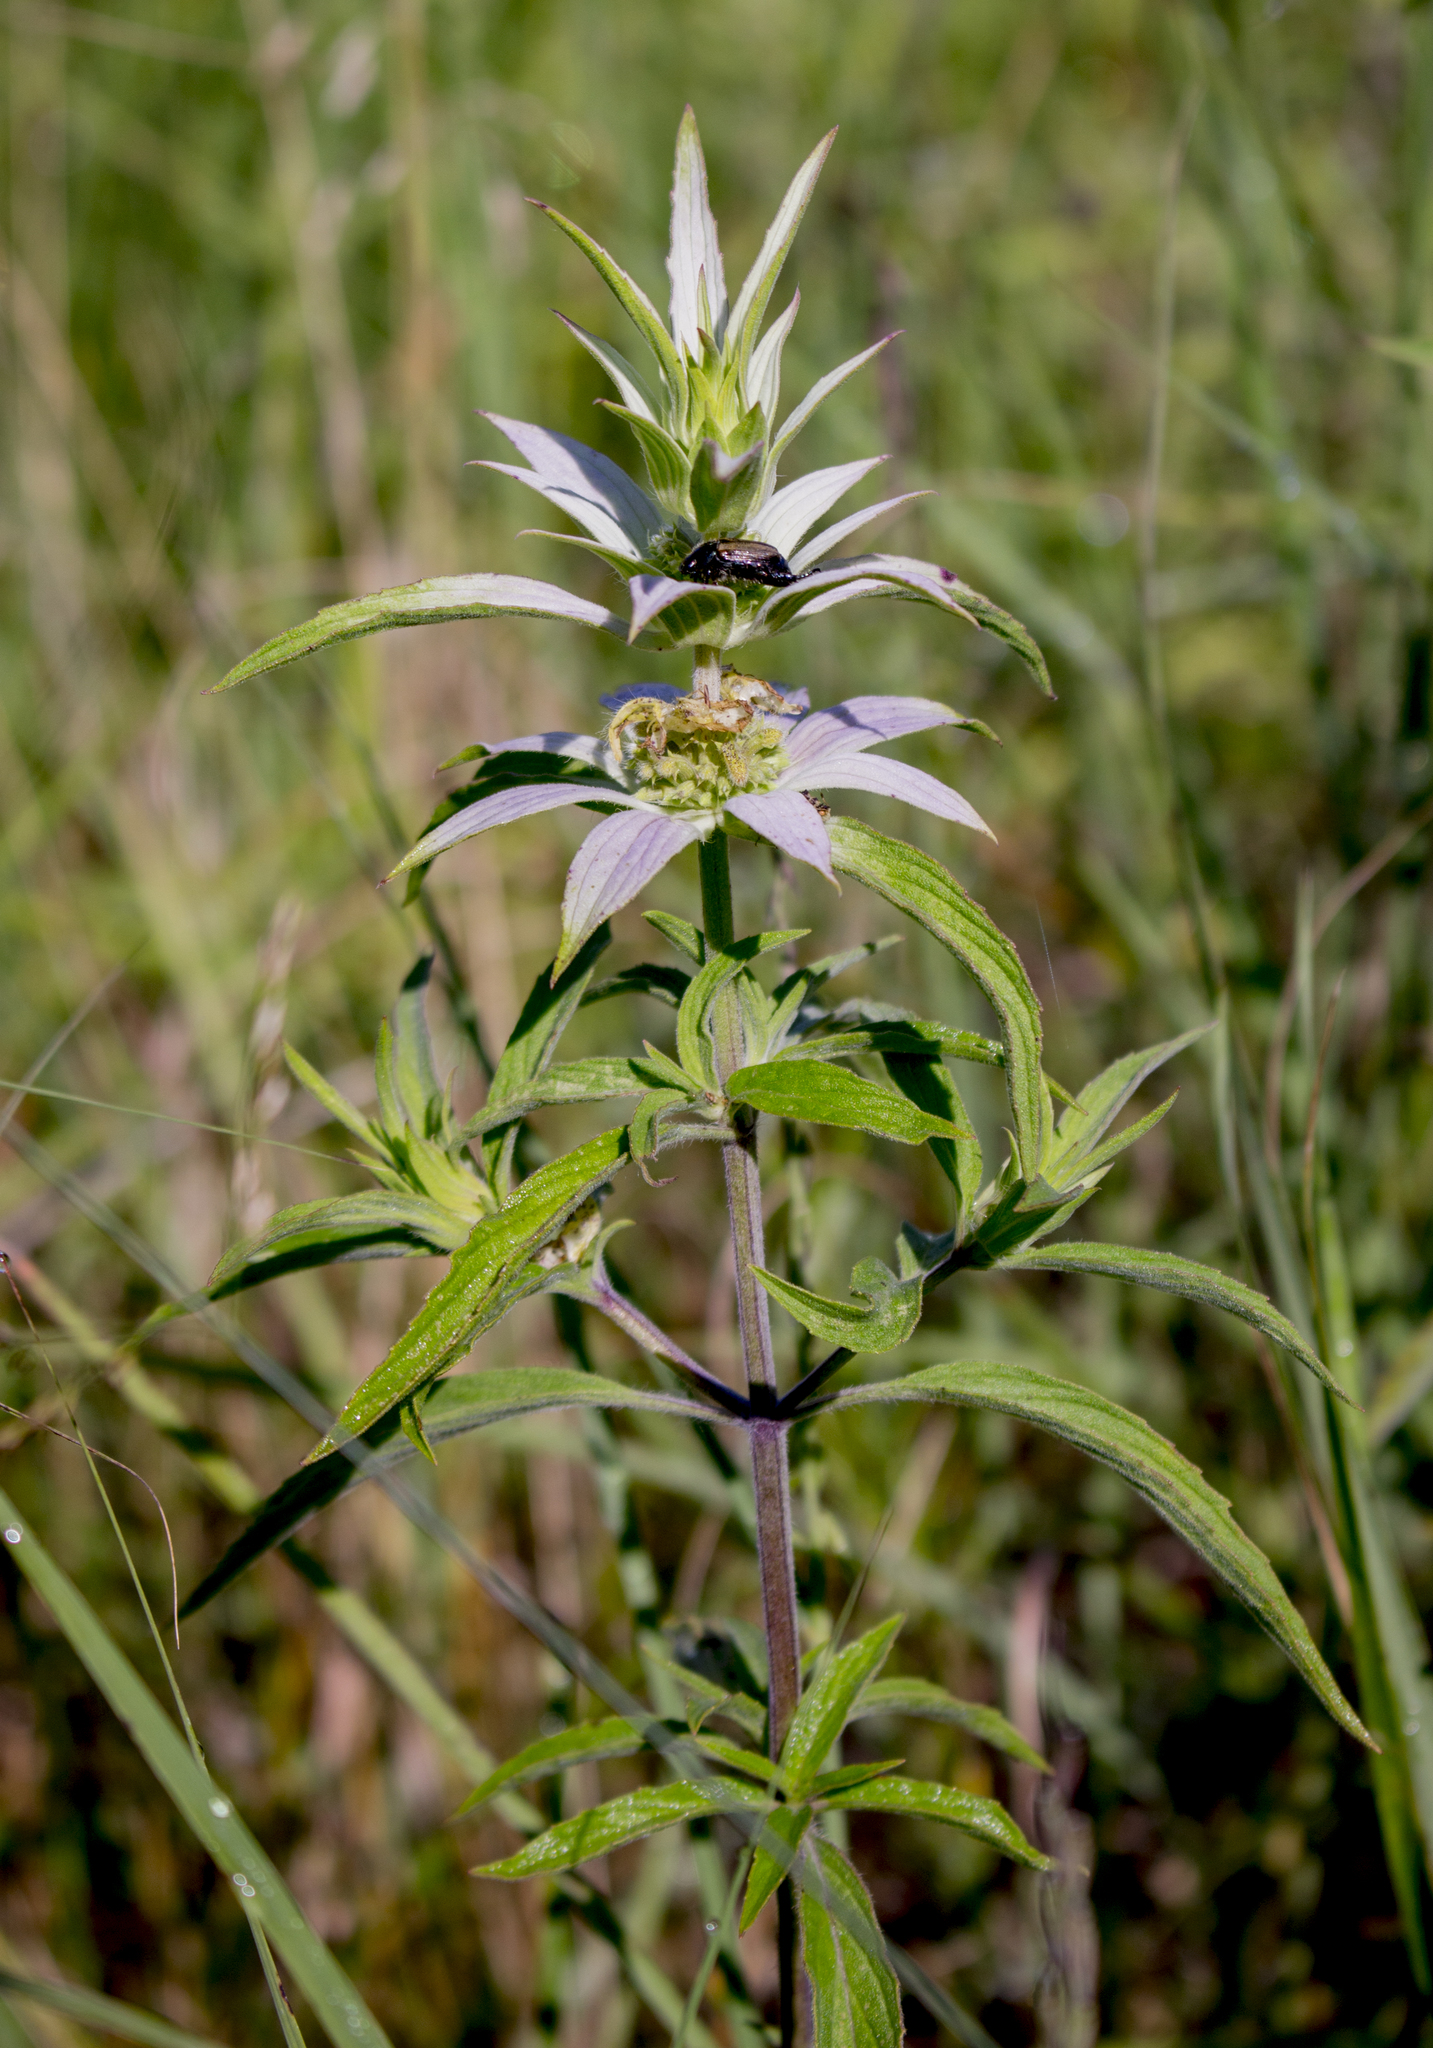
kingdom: Plantae
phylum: Tracheophyta
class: Magnoliopsida
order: Lamiales
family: Lamiaceae
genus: Monarda
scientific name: Monarda punctata
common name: Dotted monarda
